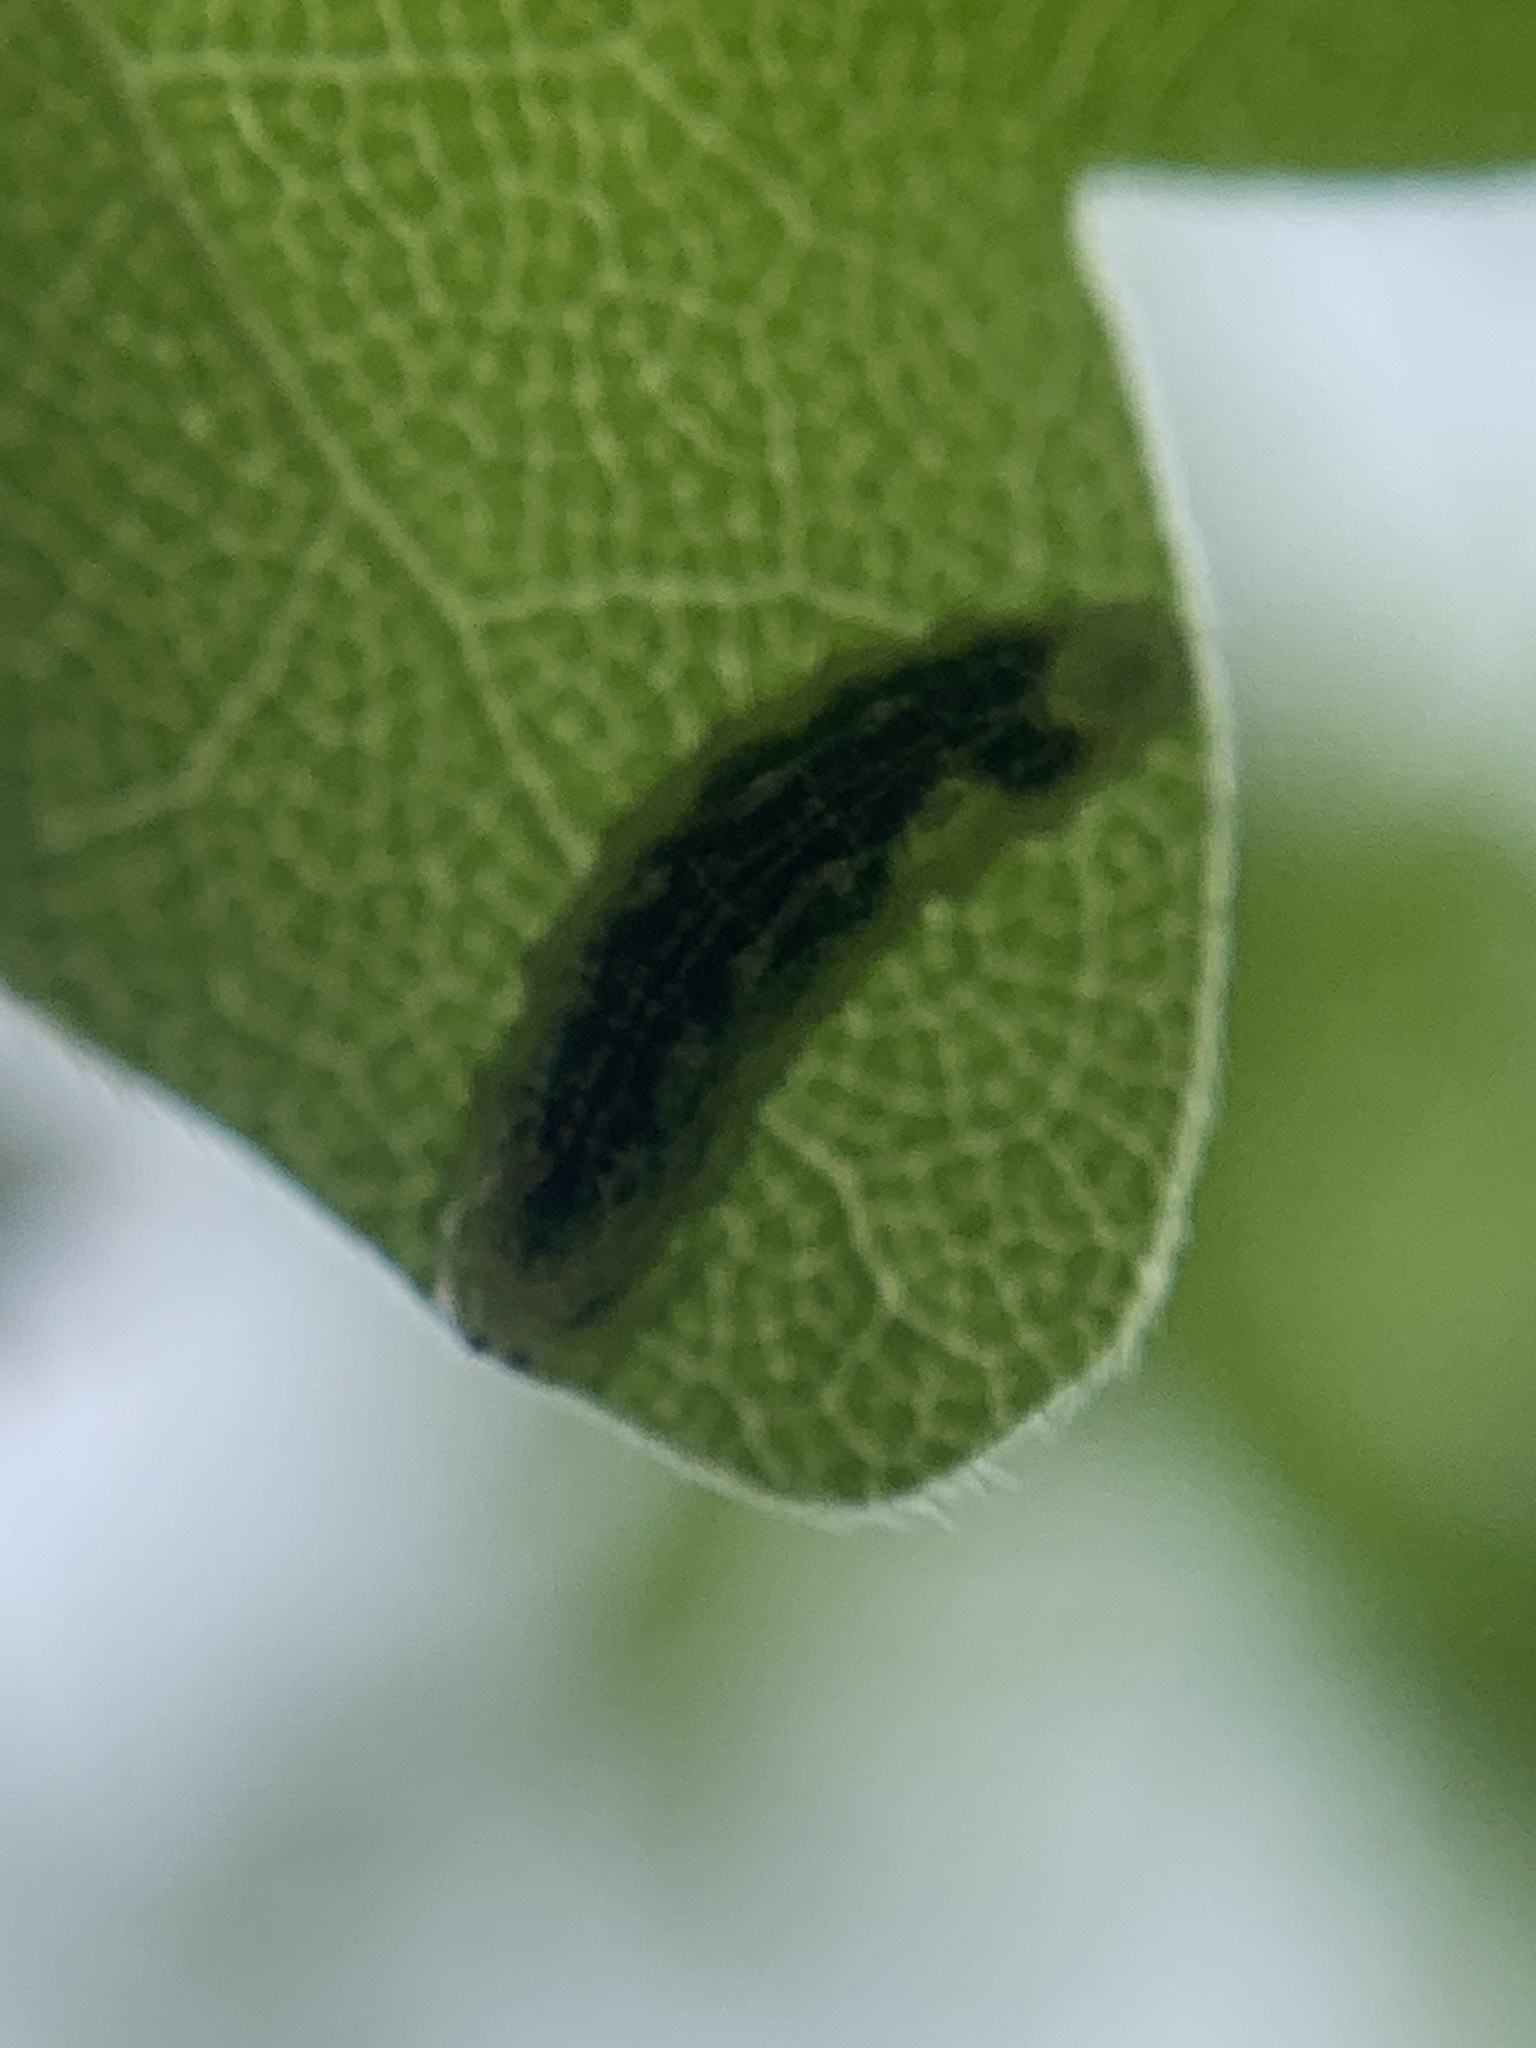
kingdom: Animalia
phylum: Arthropoda
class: Insecta
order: Diptera
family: Syrphidae
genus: Syrphus
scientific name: Syrphus
